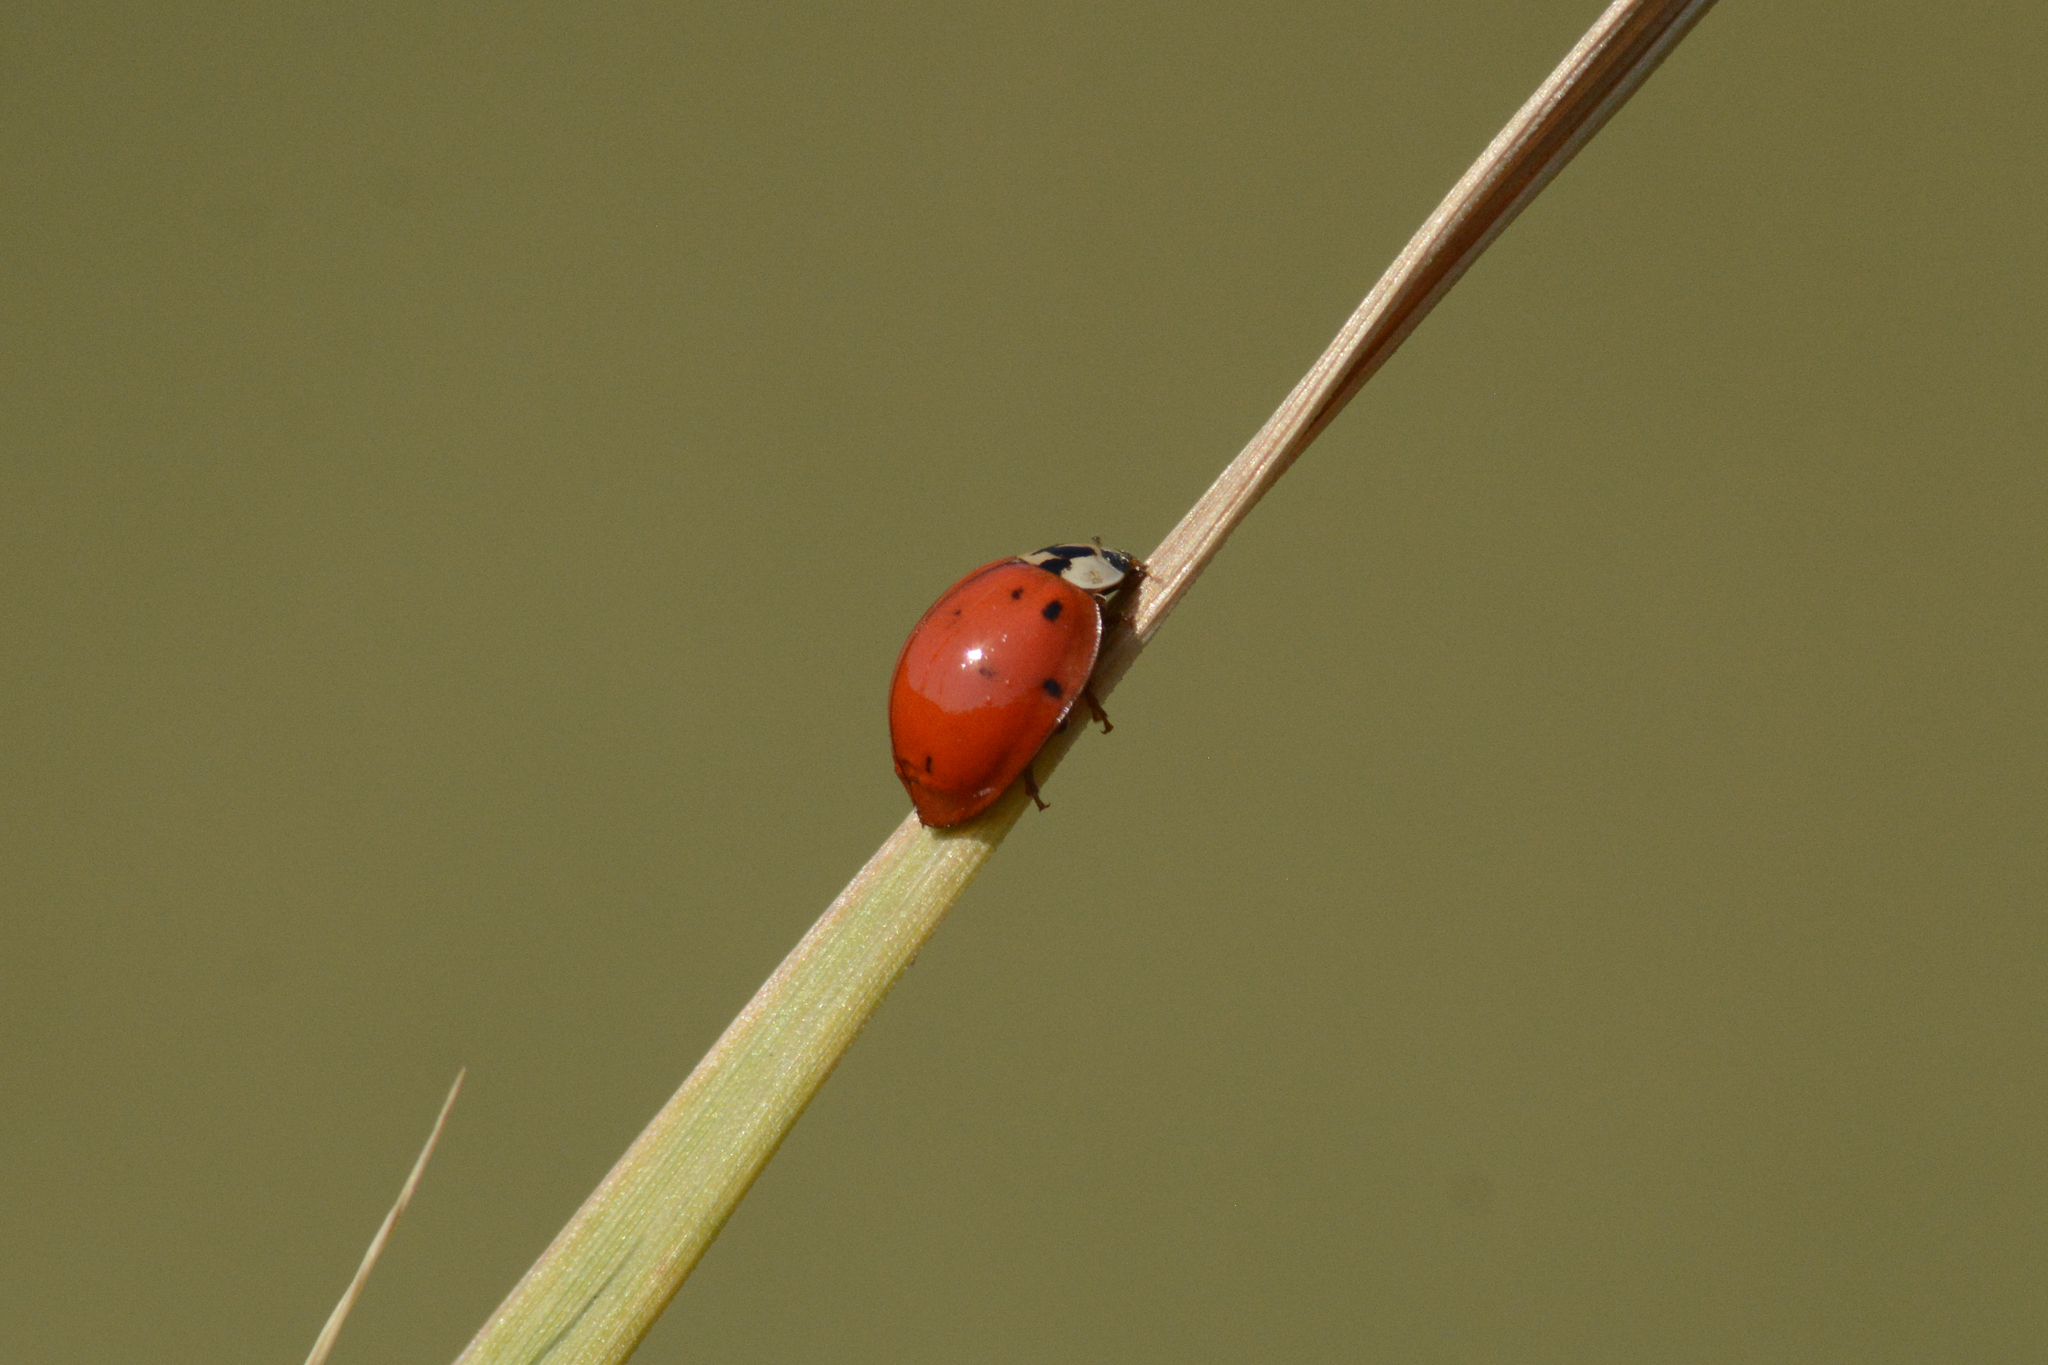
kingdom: Animalia
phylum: Arthropoda
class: Insecta
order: Coleoptera
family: Coccinellidae
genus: Harmonia
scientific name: Harmonia axyridis
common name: Harlequin ladybird
